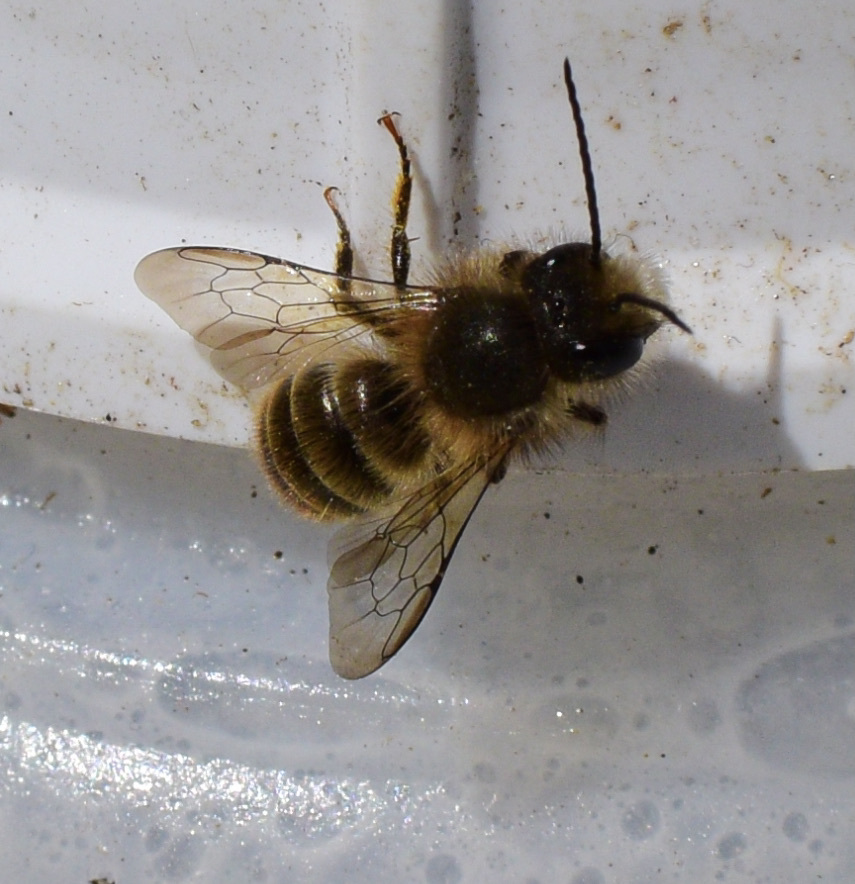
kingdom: Animalia
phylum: Arthropoda
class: Insecta
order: Hymenoptera
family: Megachilidae
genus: Osmia
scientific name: Osmia cornifrons
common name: Horn-faced bee
